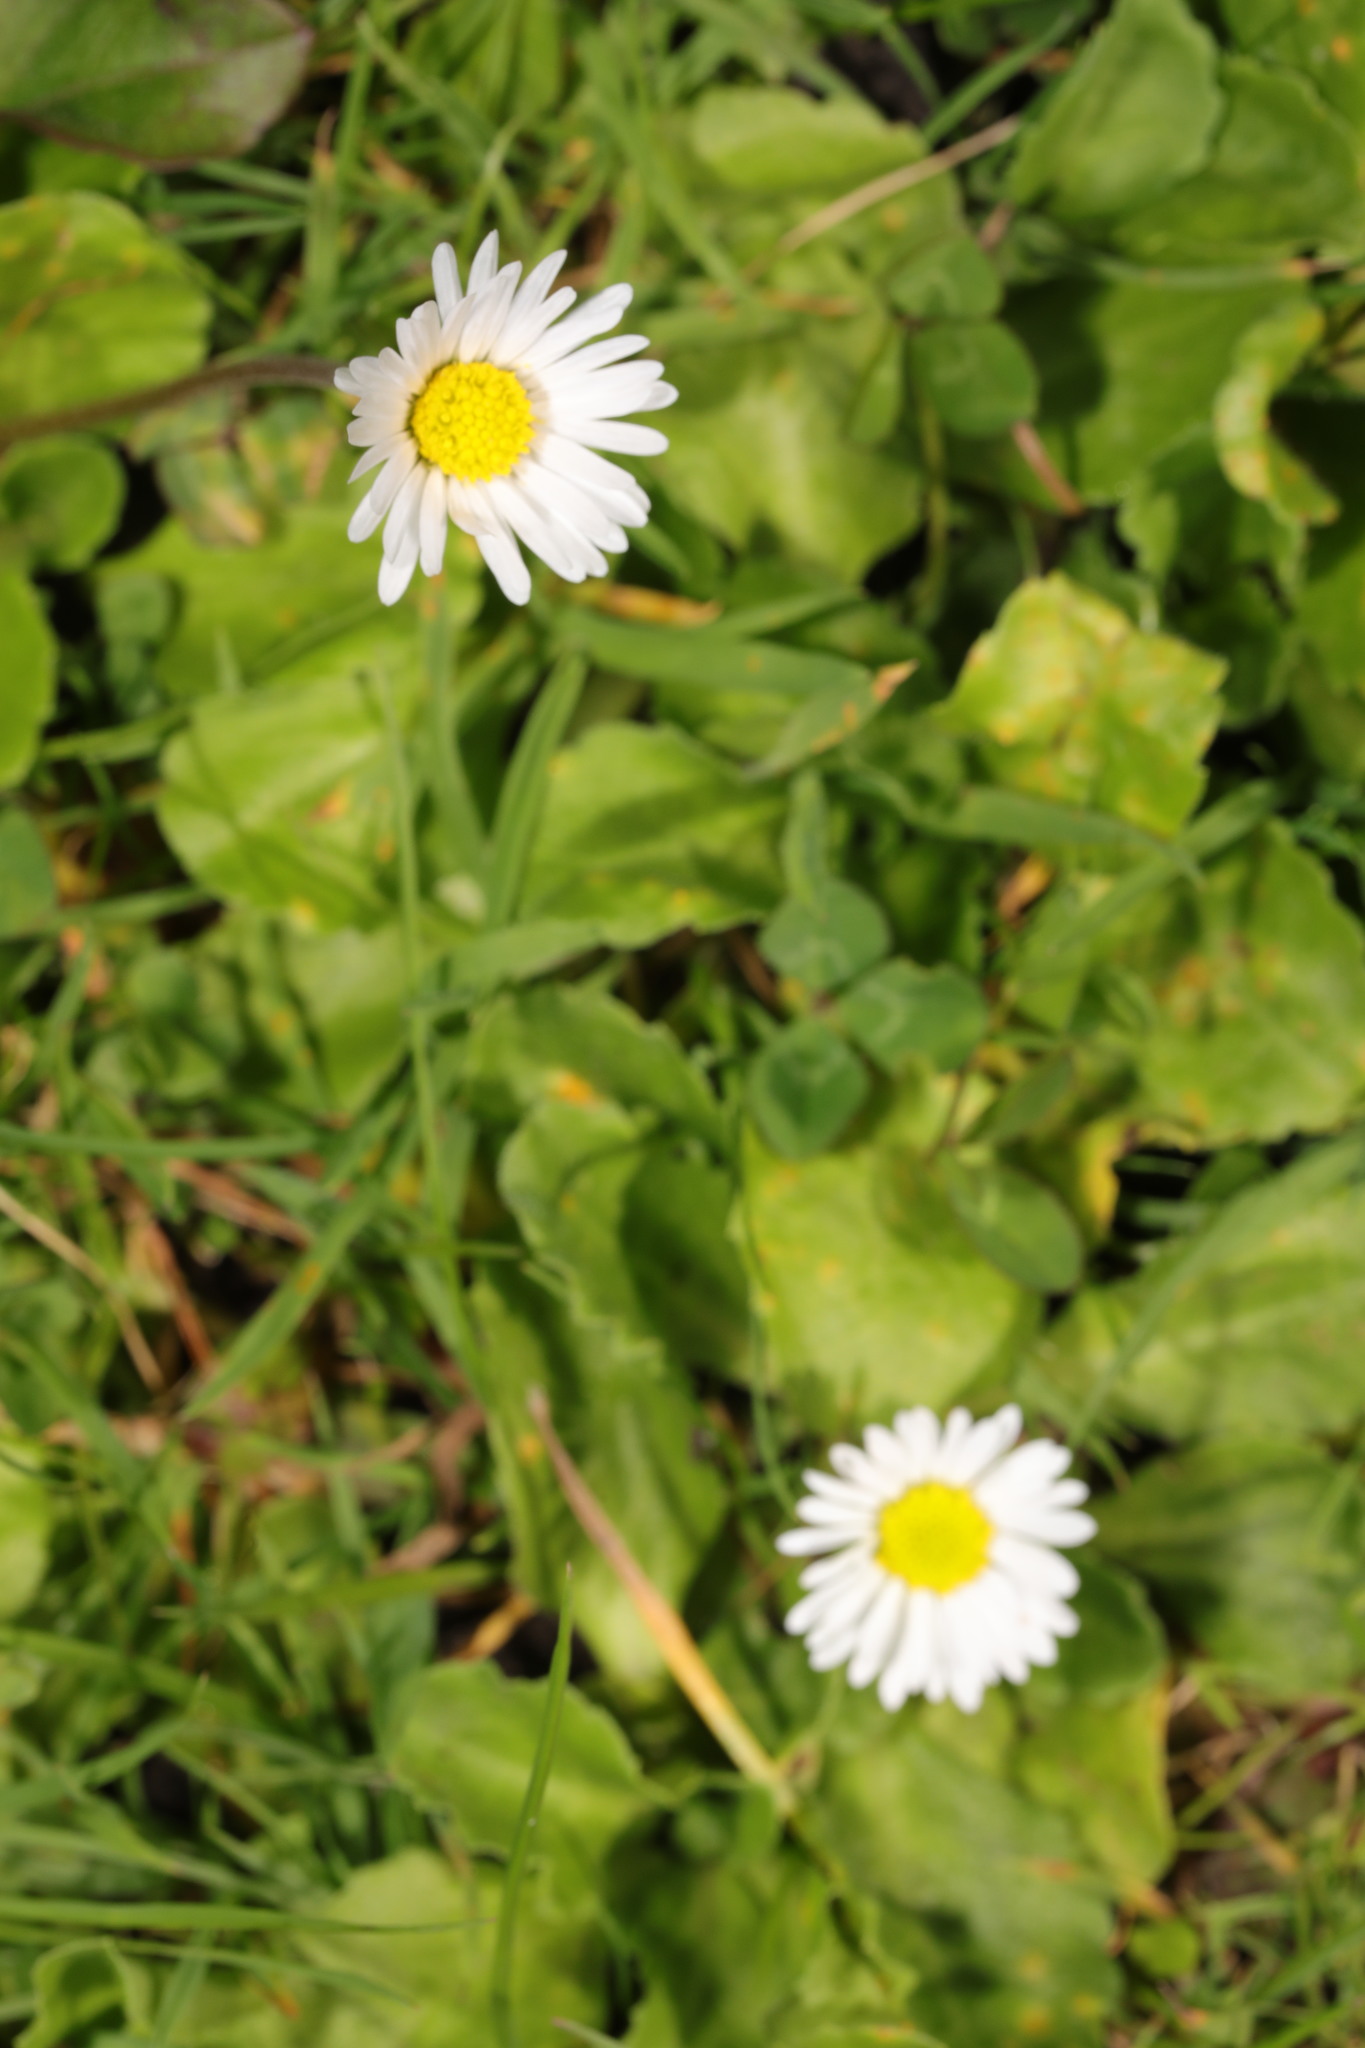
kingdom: Plantae
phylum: Tracheophyta
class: Magnoliopsida
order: Asterales
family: Asteraceae
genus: Bellis
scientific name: Bellis perennis
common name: Lawndaisy
